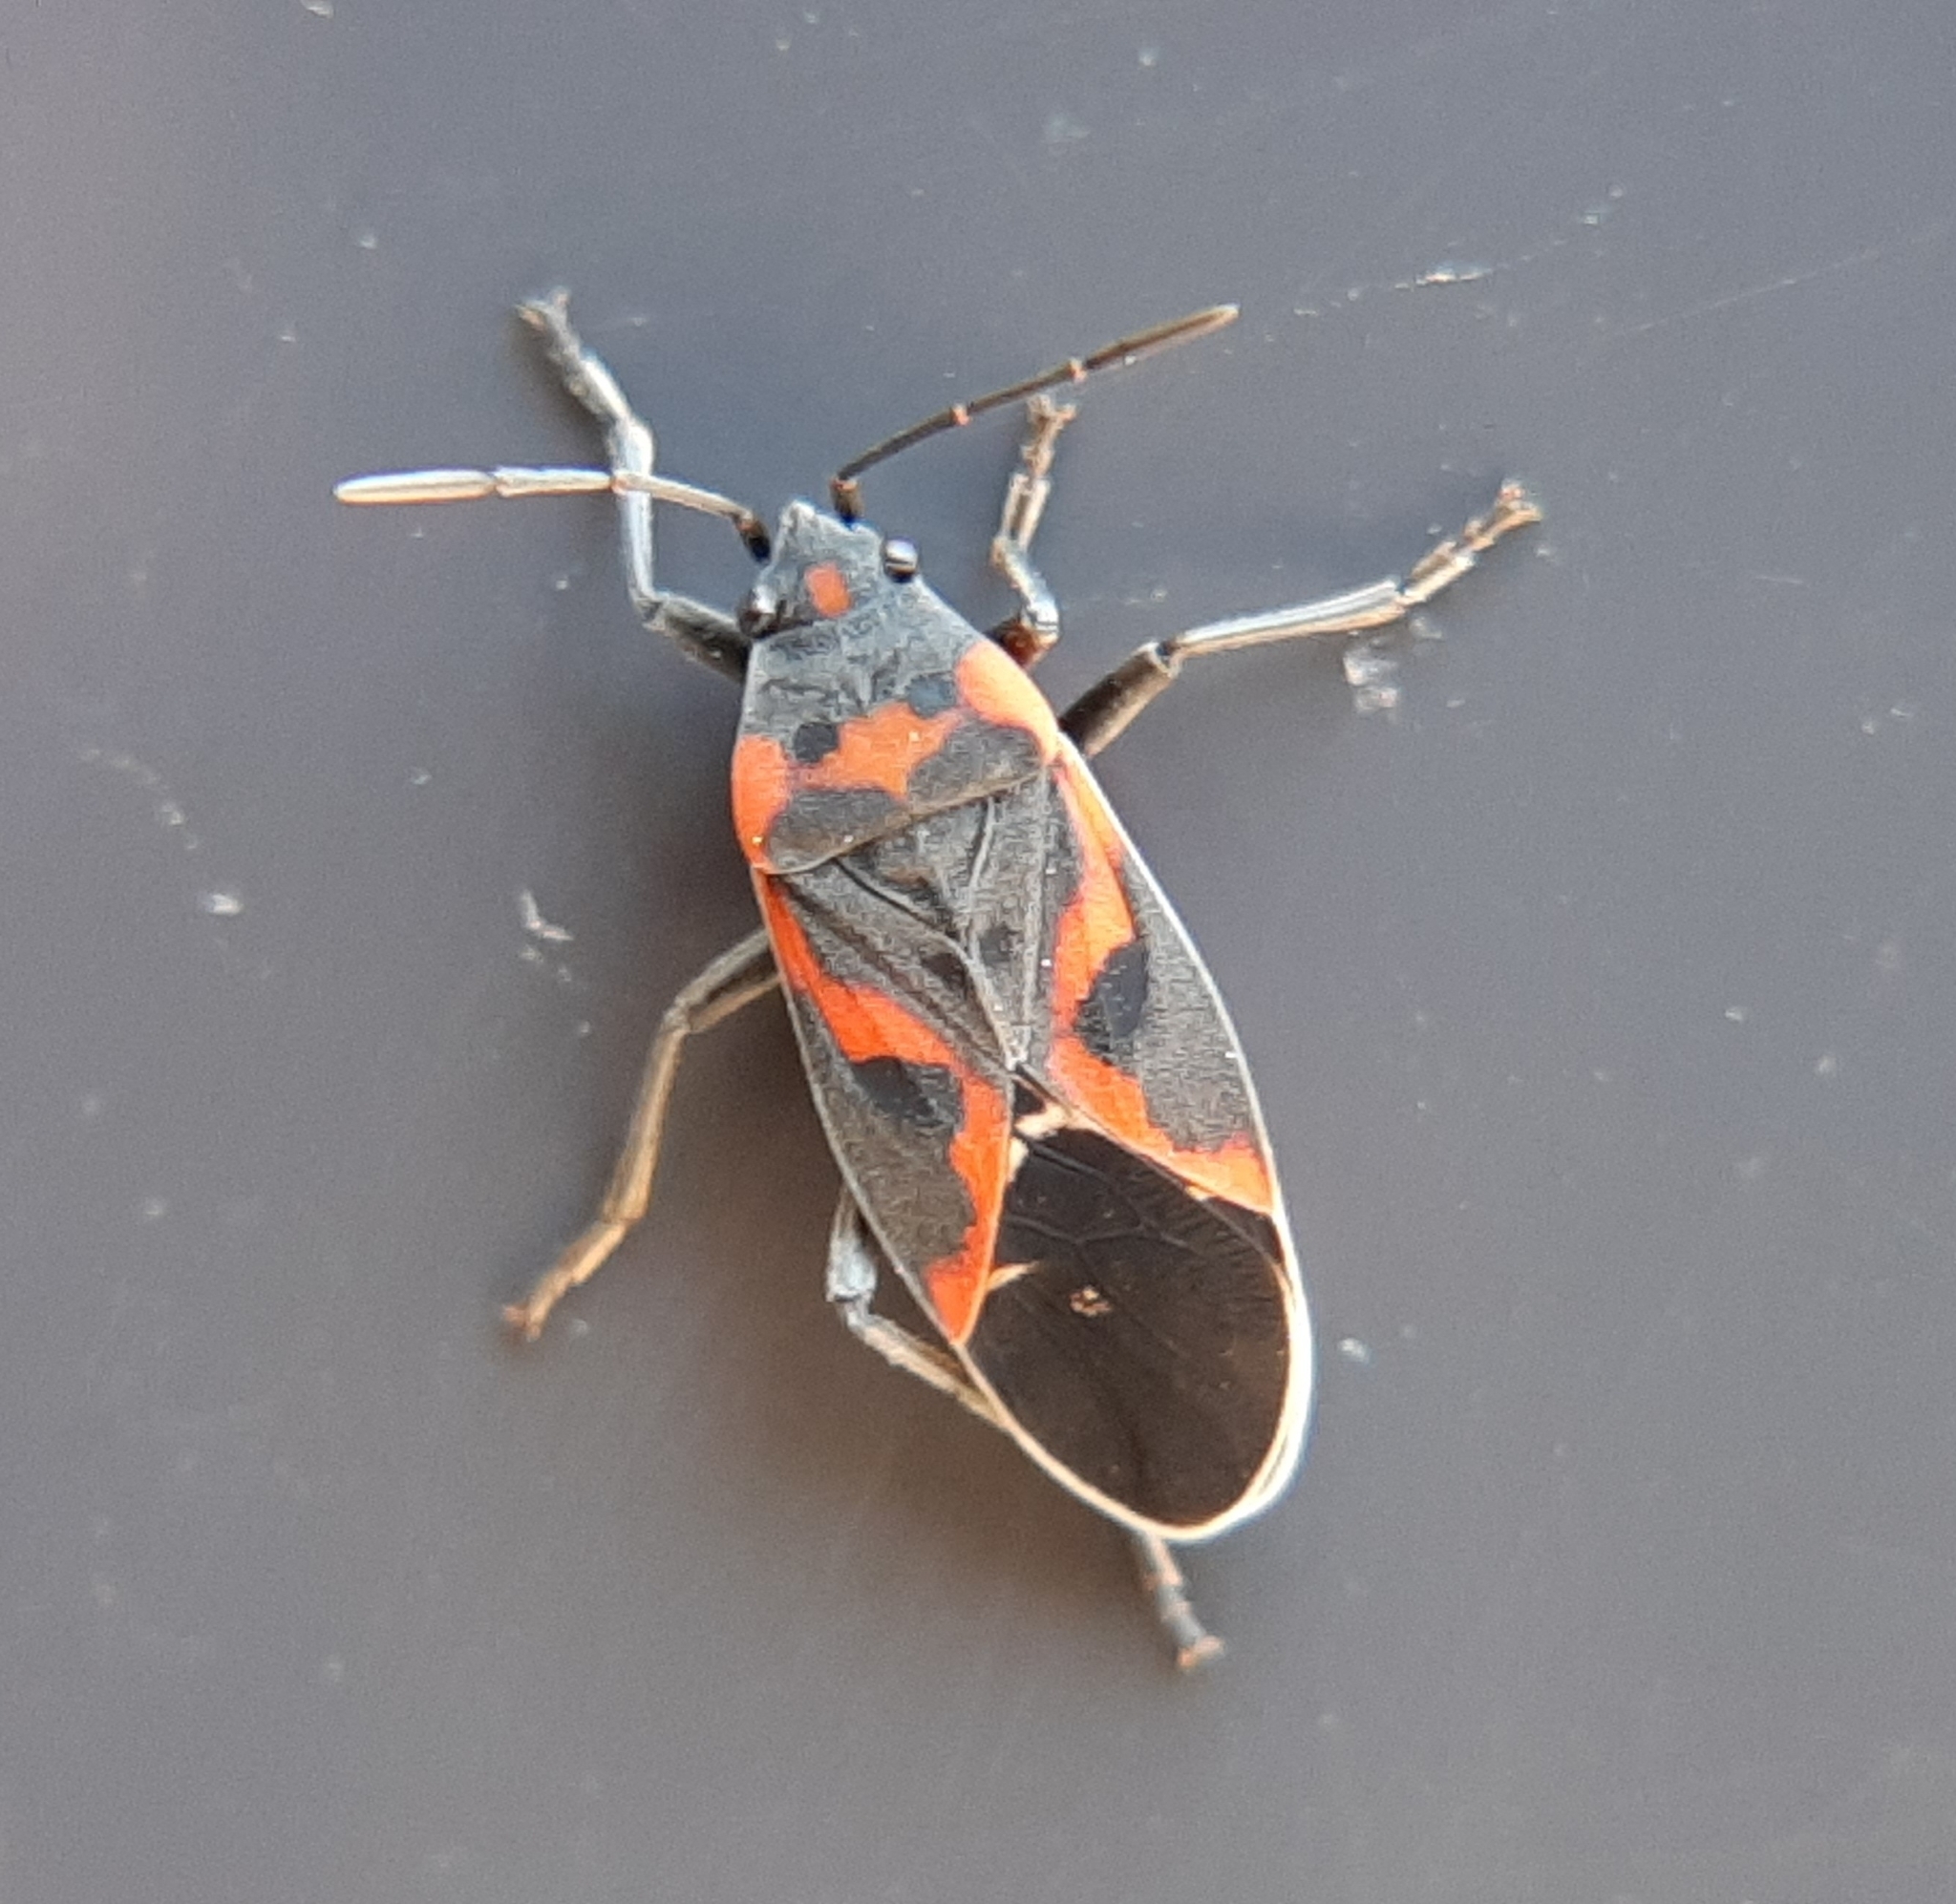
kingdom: Animalia
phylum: Arthropoda
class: Insecta
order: Hemiptera
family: Lygaeidae
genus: Lygaeus
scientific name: Lygaeus kalmii
